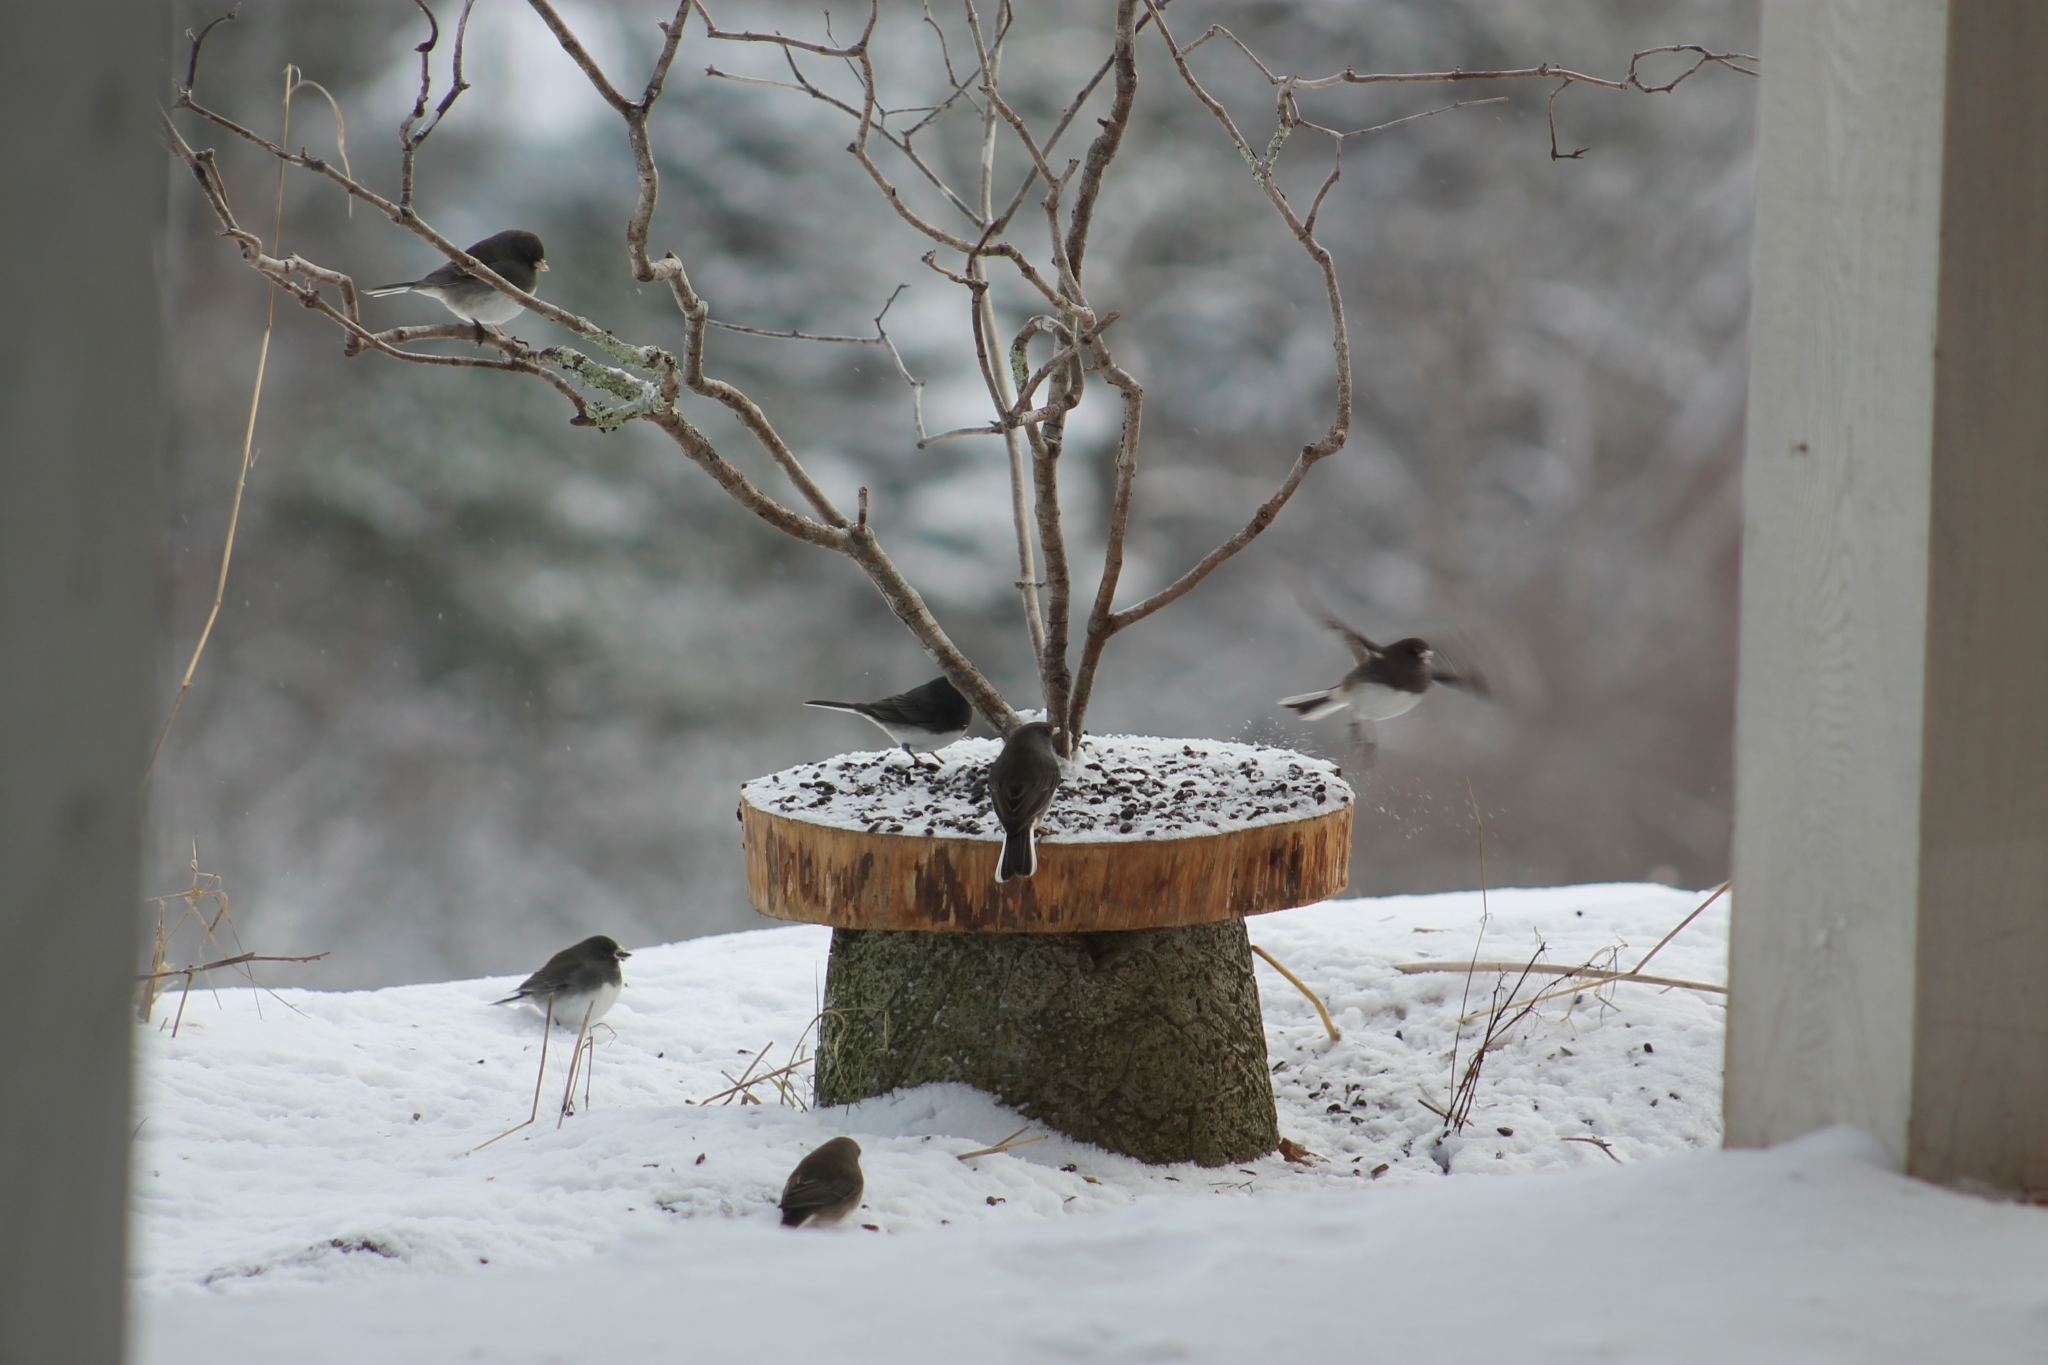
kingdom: Animalia
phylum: Chordata
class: Aves
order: Passeriformes
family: Passerellidae
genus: Junco
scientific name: Junco hyemalis
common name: Dark-eyed junco
